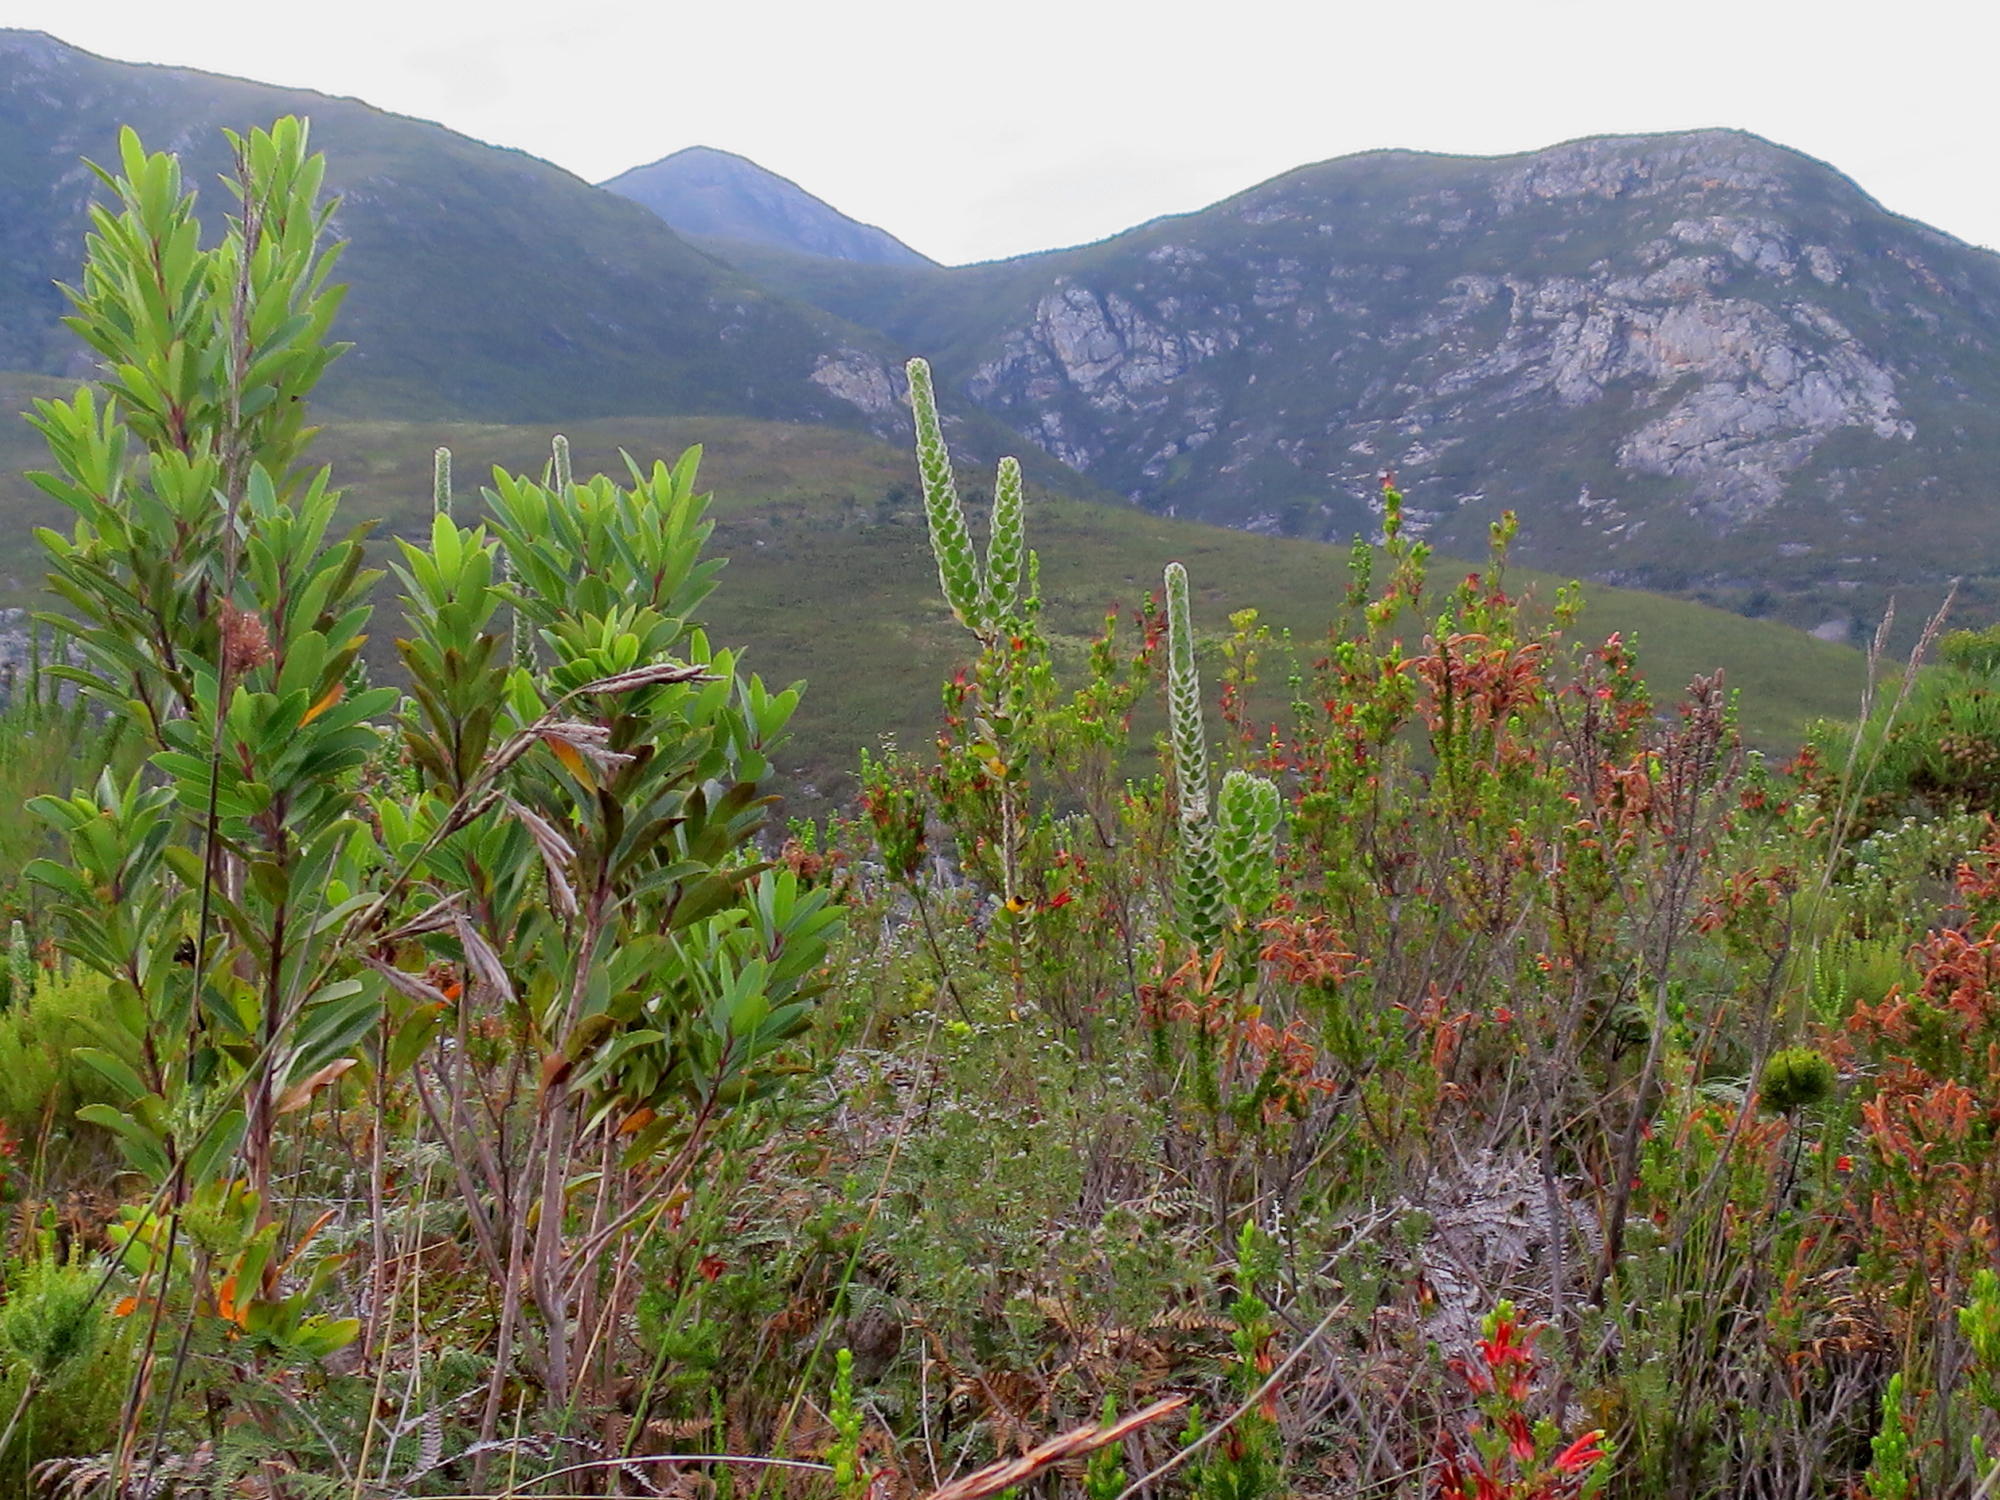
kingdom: Plantae
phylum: Tracheophyta
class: Magnoliopsida
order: Proteales
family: Proteaceae
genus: Mimetes
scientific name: Mimetes pauciflora
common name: Three-flowered pagoda
